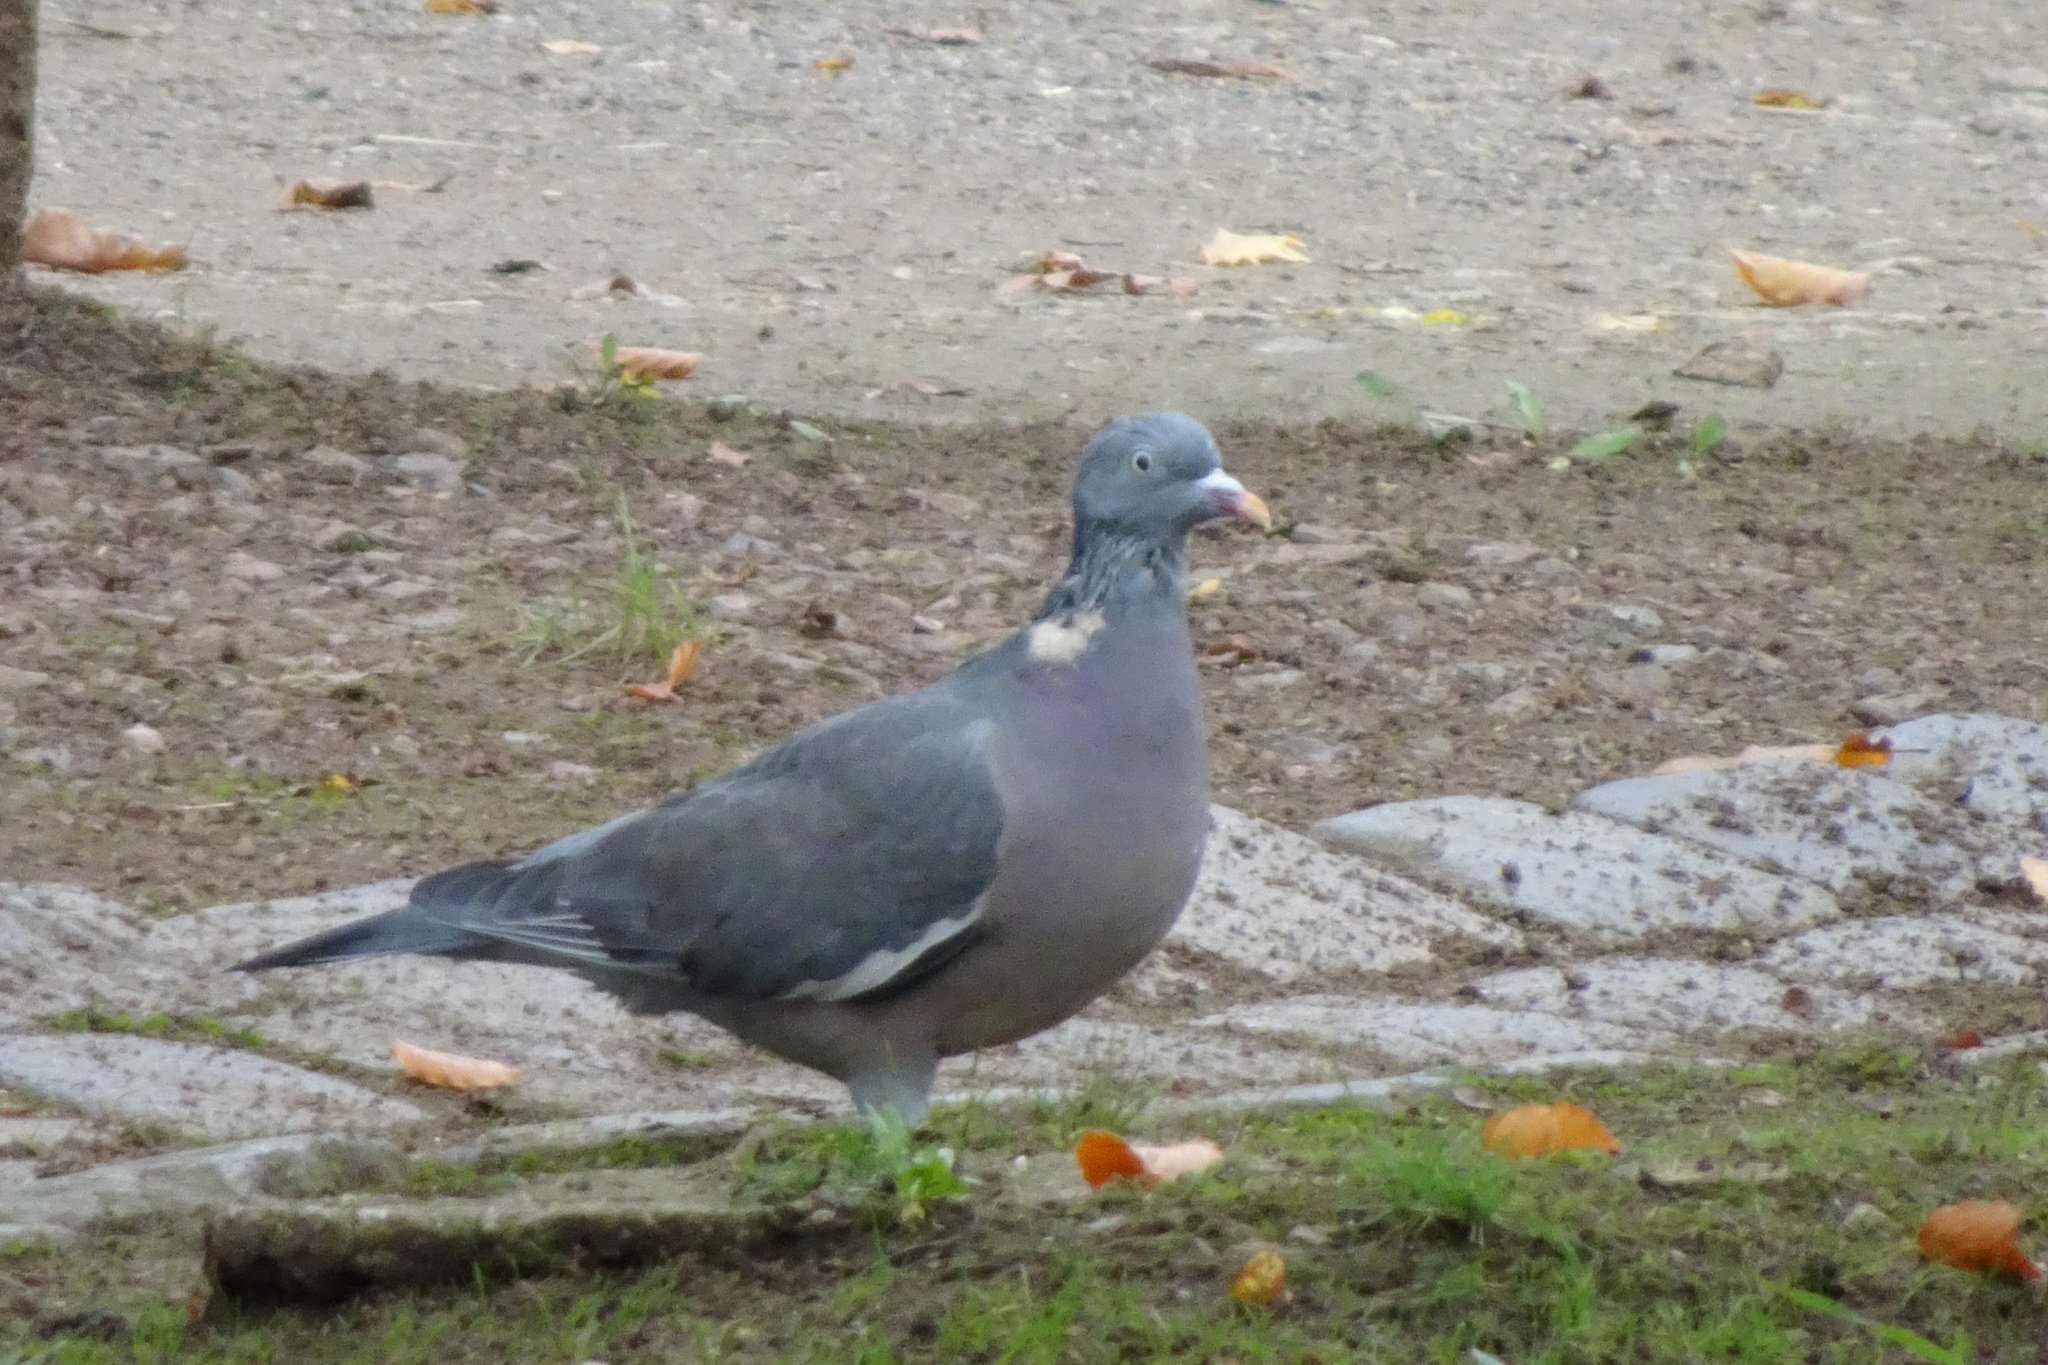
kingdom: Animalia
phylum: Chordata
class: Aves
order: Columbiformes
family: Columbidae
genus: Columba
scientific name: Columba palumbus
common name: Common wood pigeon
